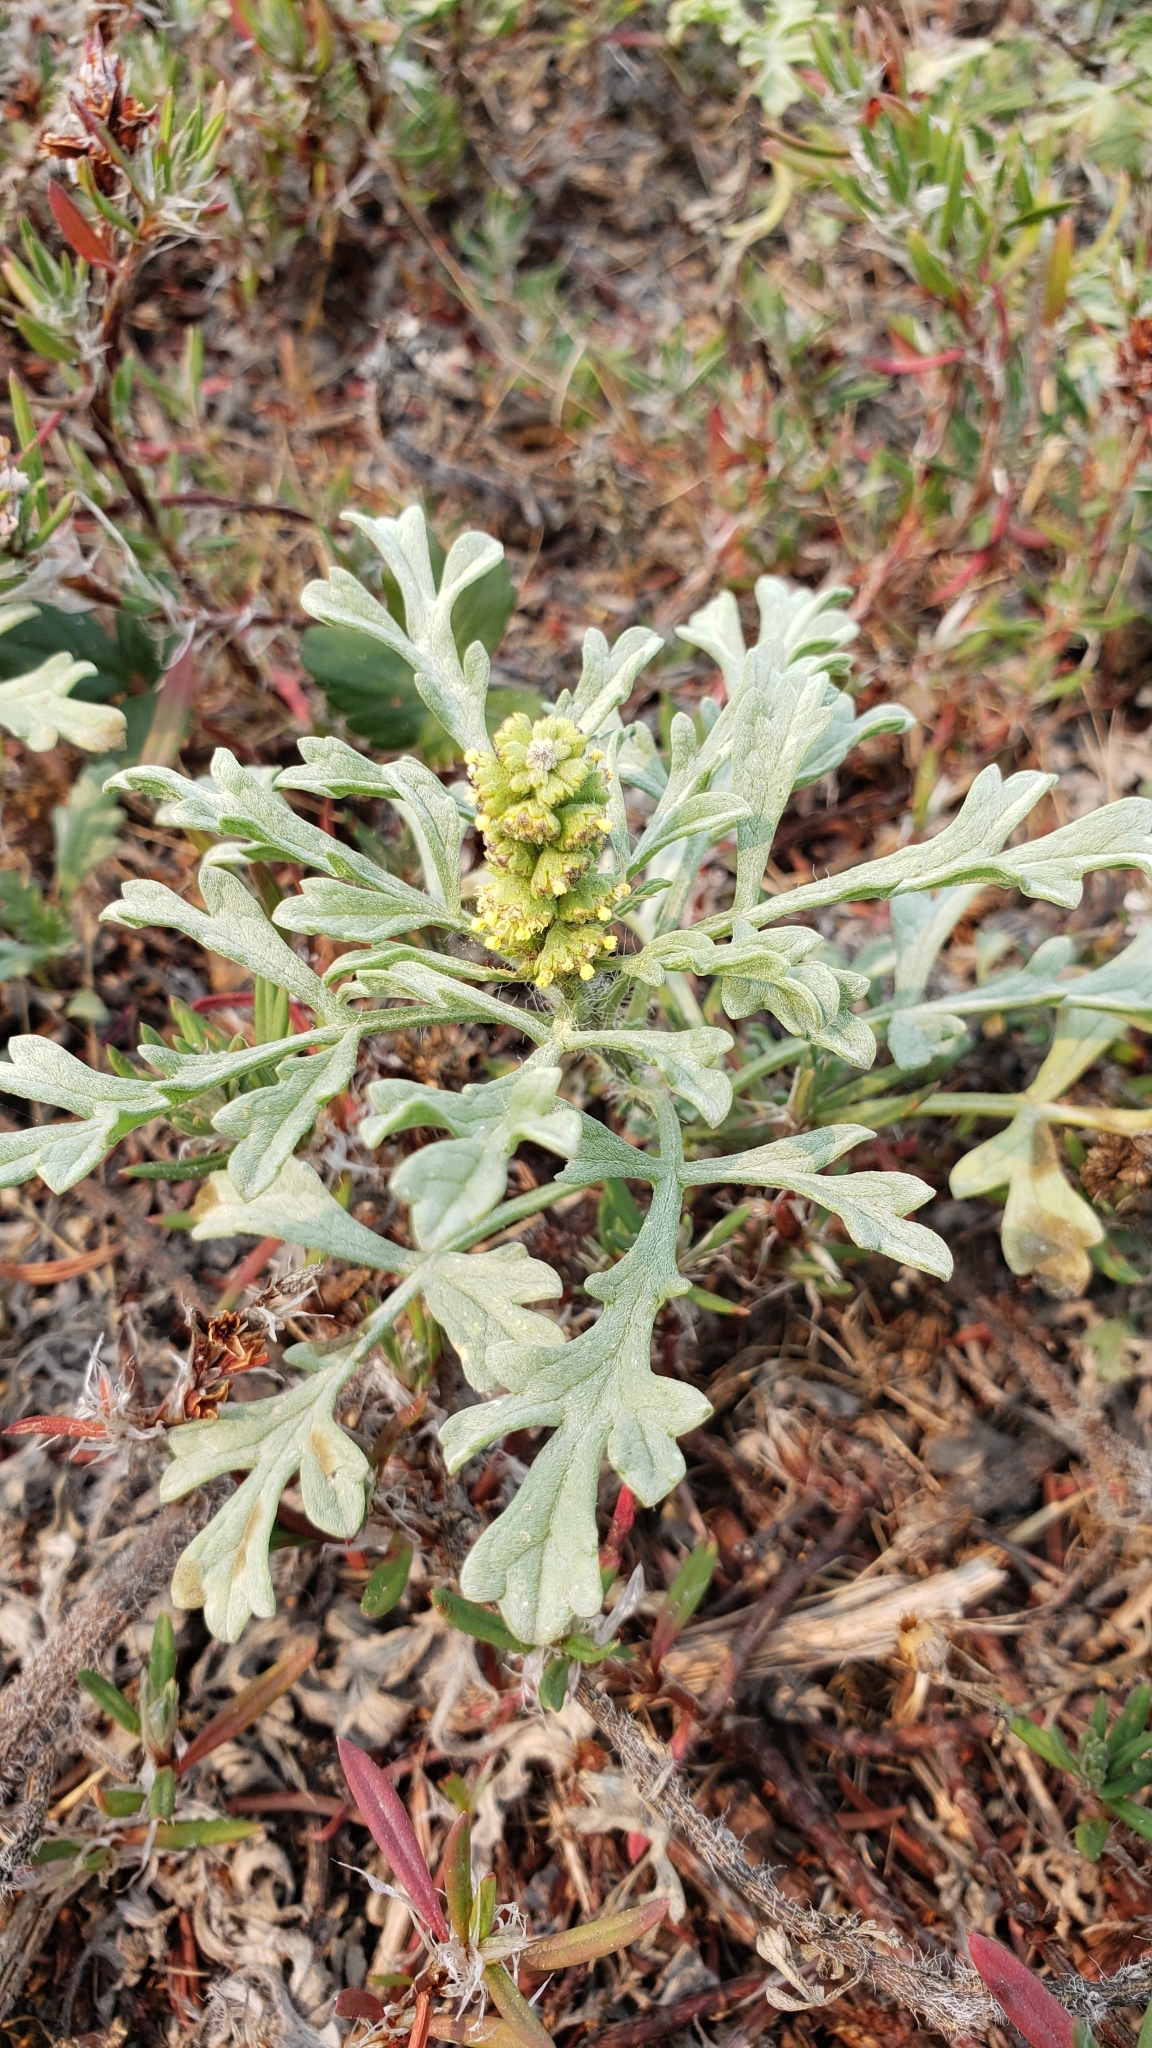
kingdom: Plantae
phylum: Tracheophyta
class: Magnoliopsida
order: Asterales
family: Asteraceae
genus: Ambrosia
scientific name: Ambrosia chamissonis
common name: Beachbur
